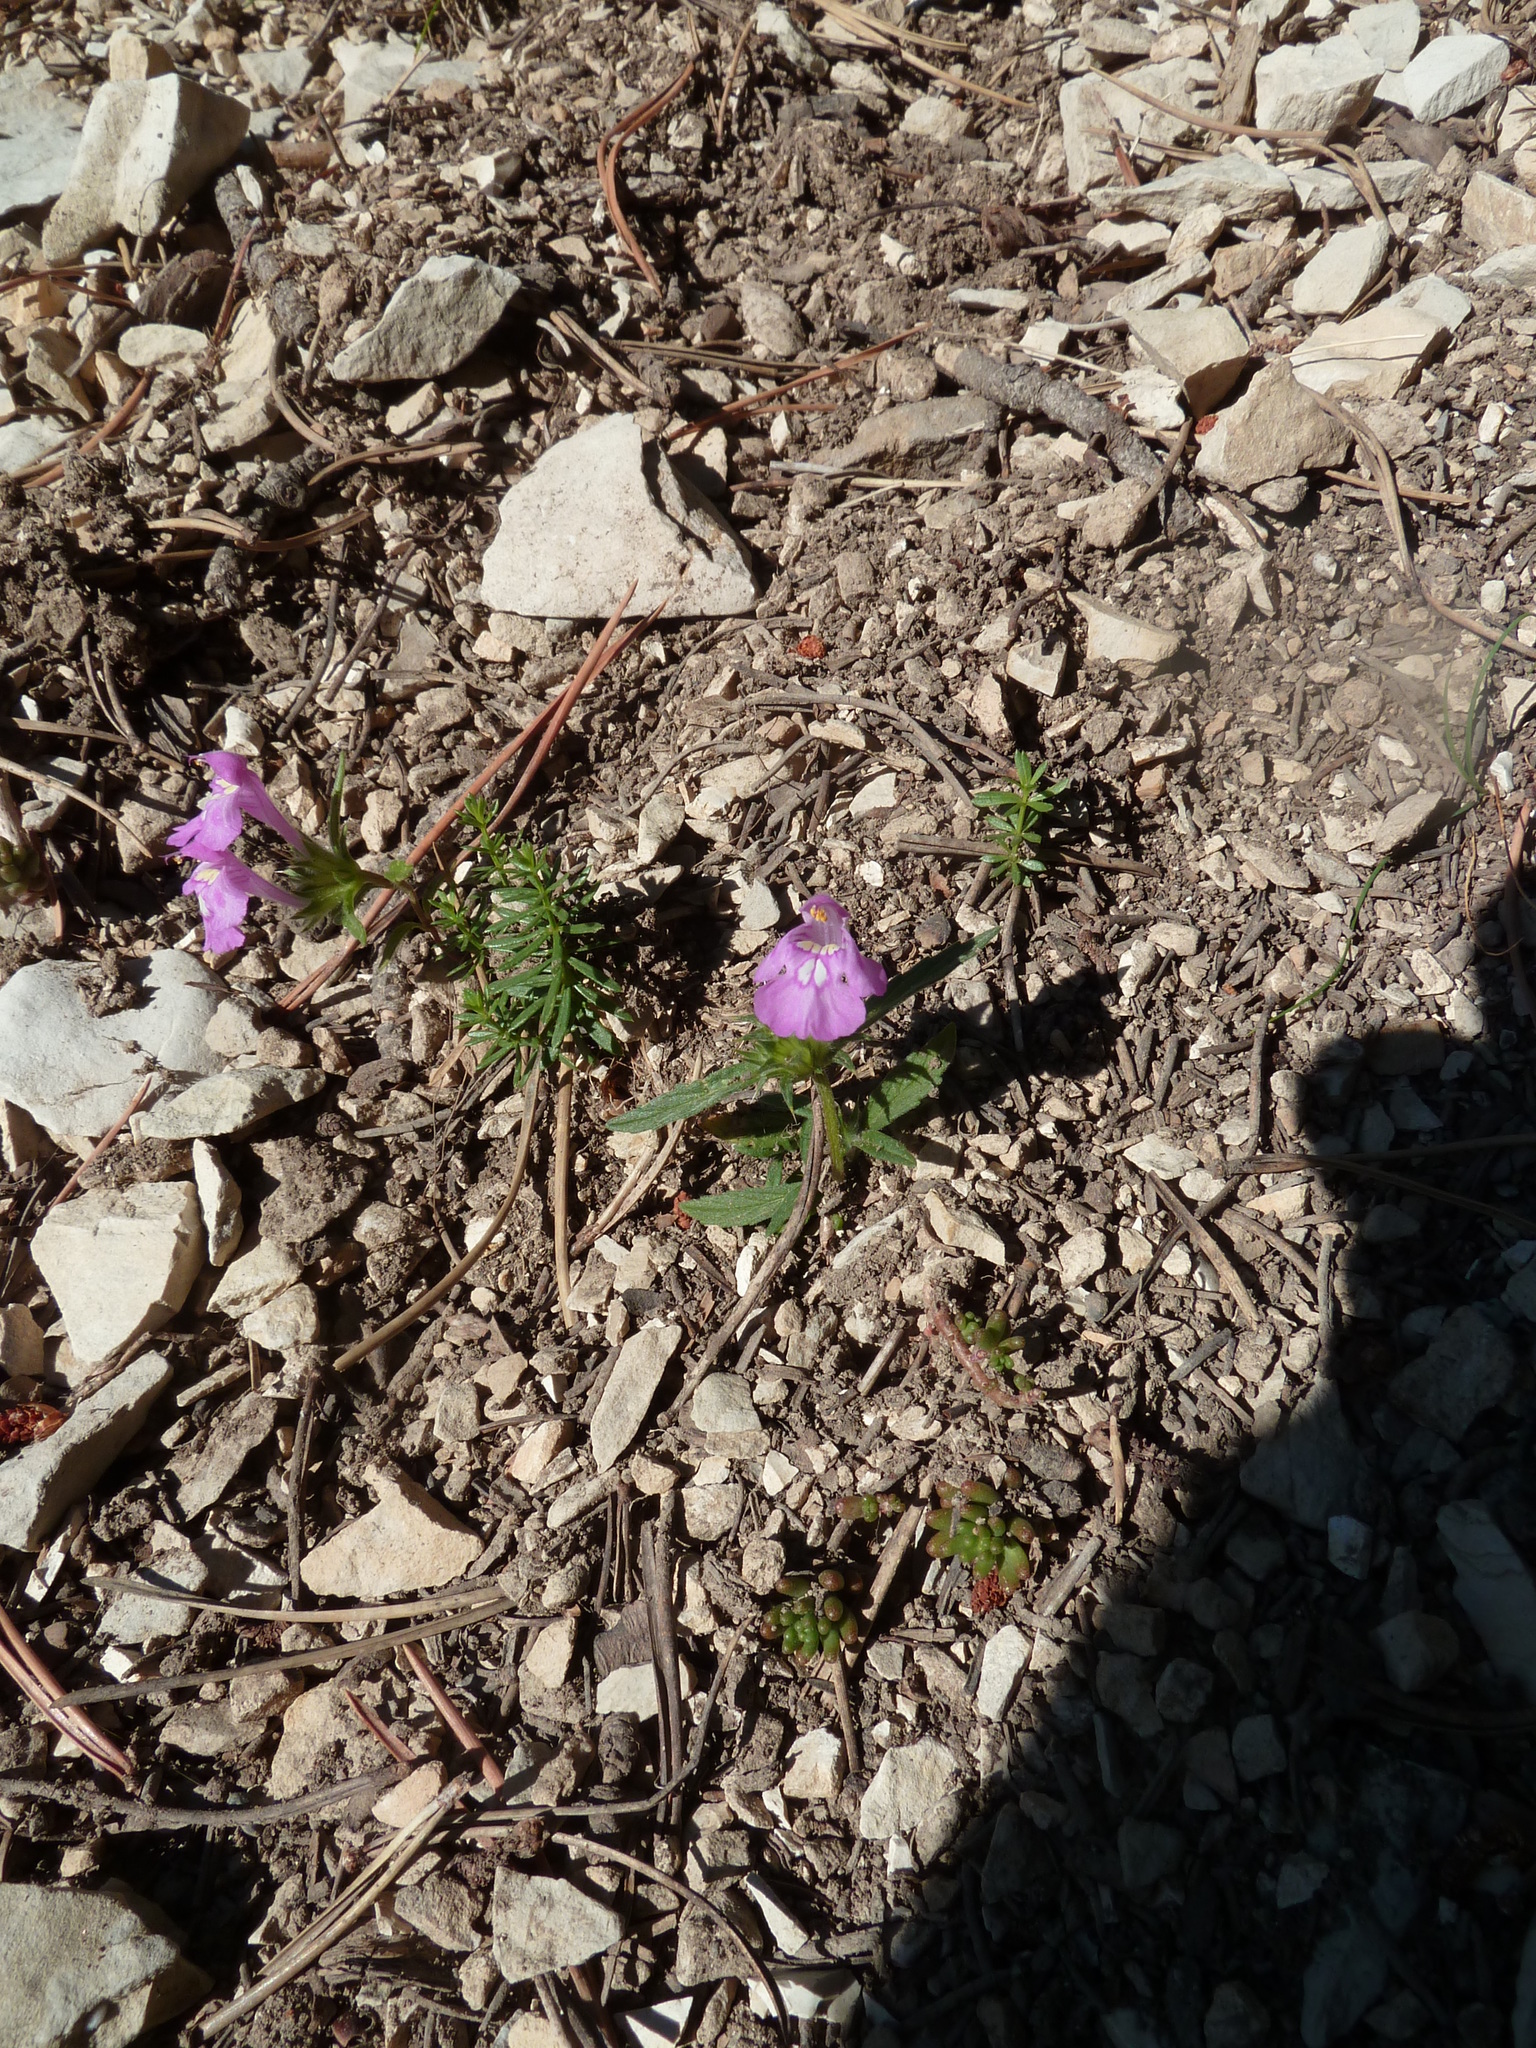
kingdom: Plantae
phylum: Tracheophyta
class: Magnoliopsida
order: Lamiales
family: Lamiaceae
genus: Galeopsis
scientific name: Galeopsis angustifolia
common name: Red hemp-nettle
